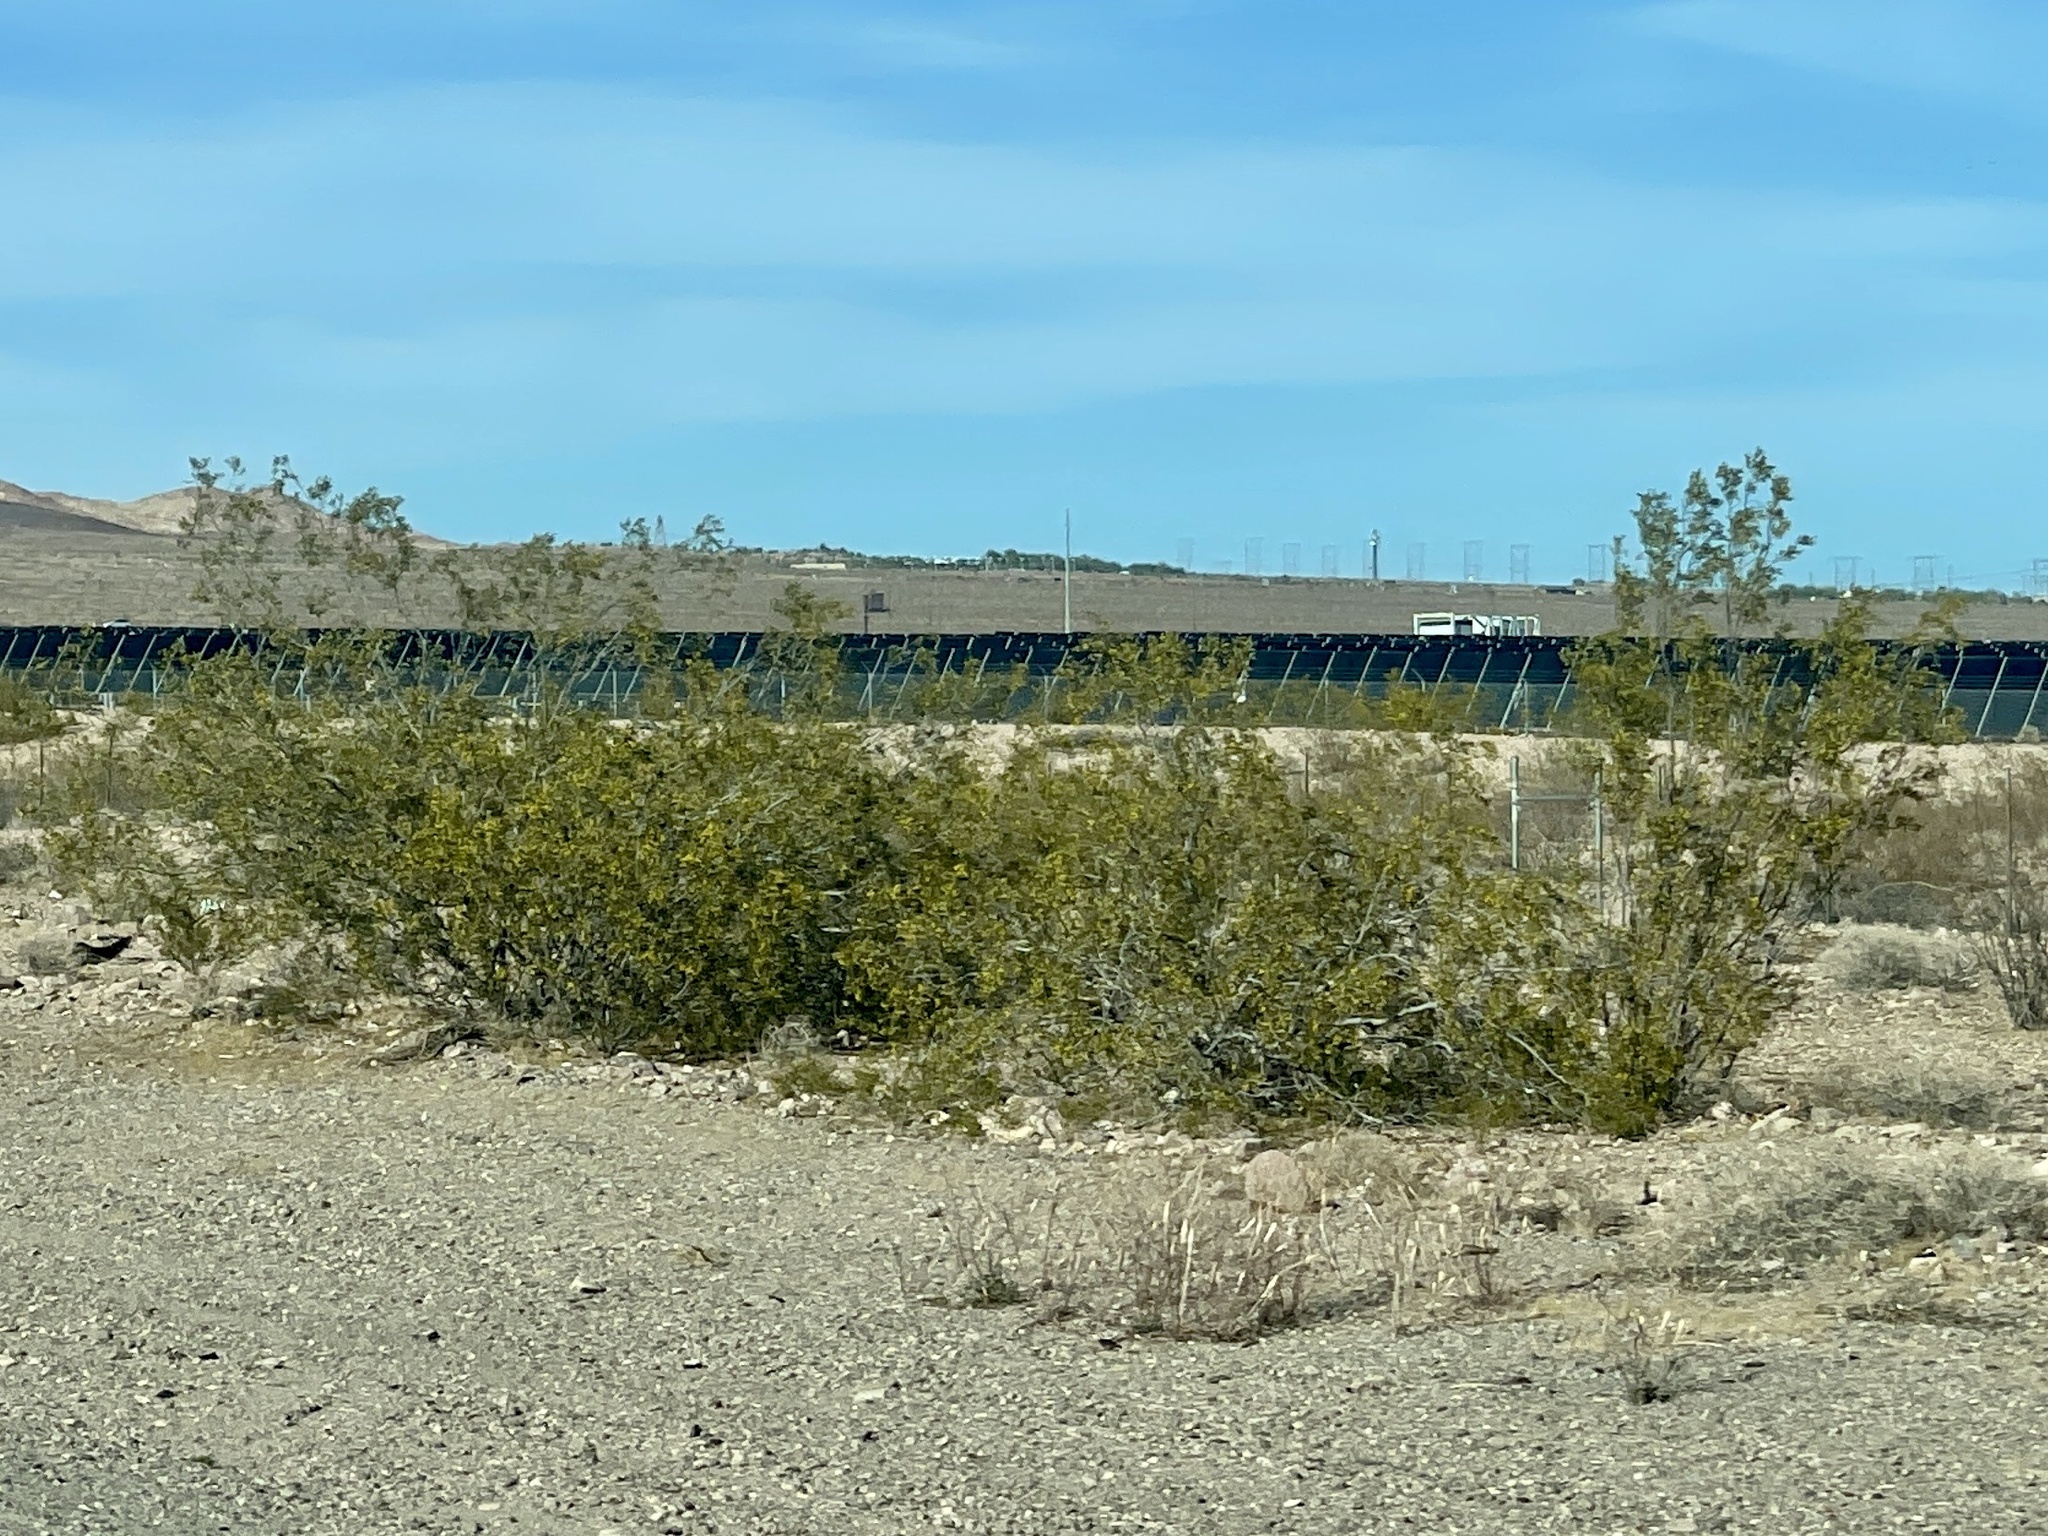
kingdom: Plantae
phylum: Tracheophyta
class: Magnoliopsida
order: Zygophyllales
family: Zygophyllaceae
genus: Larrea
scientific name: Larrea tridentata
